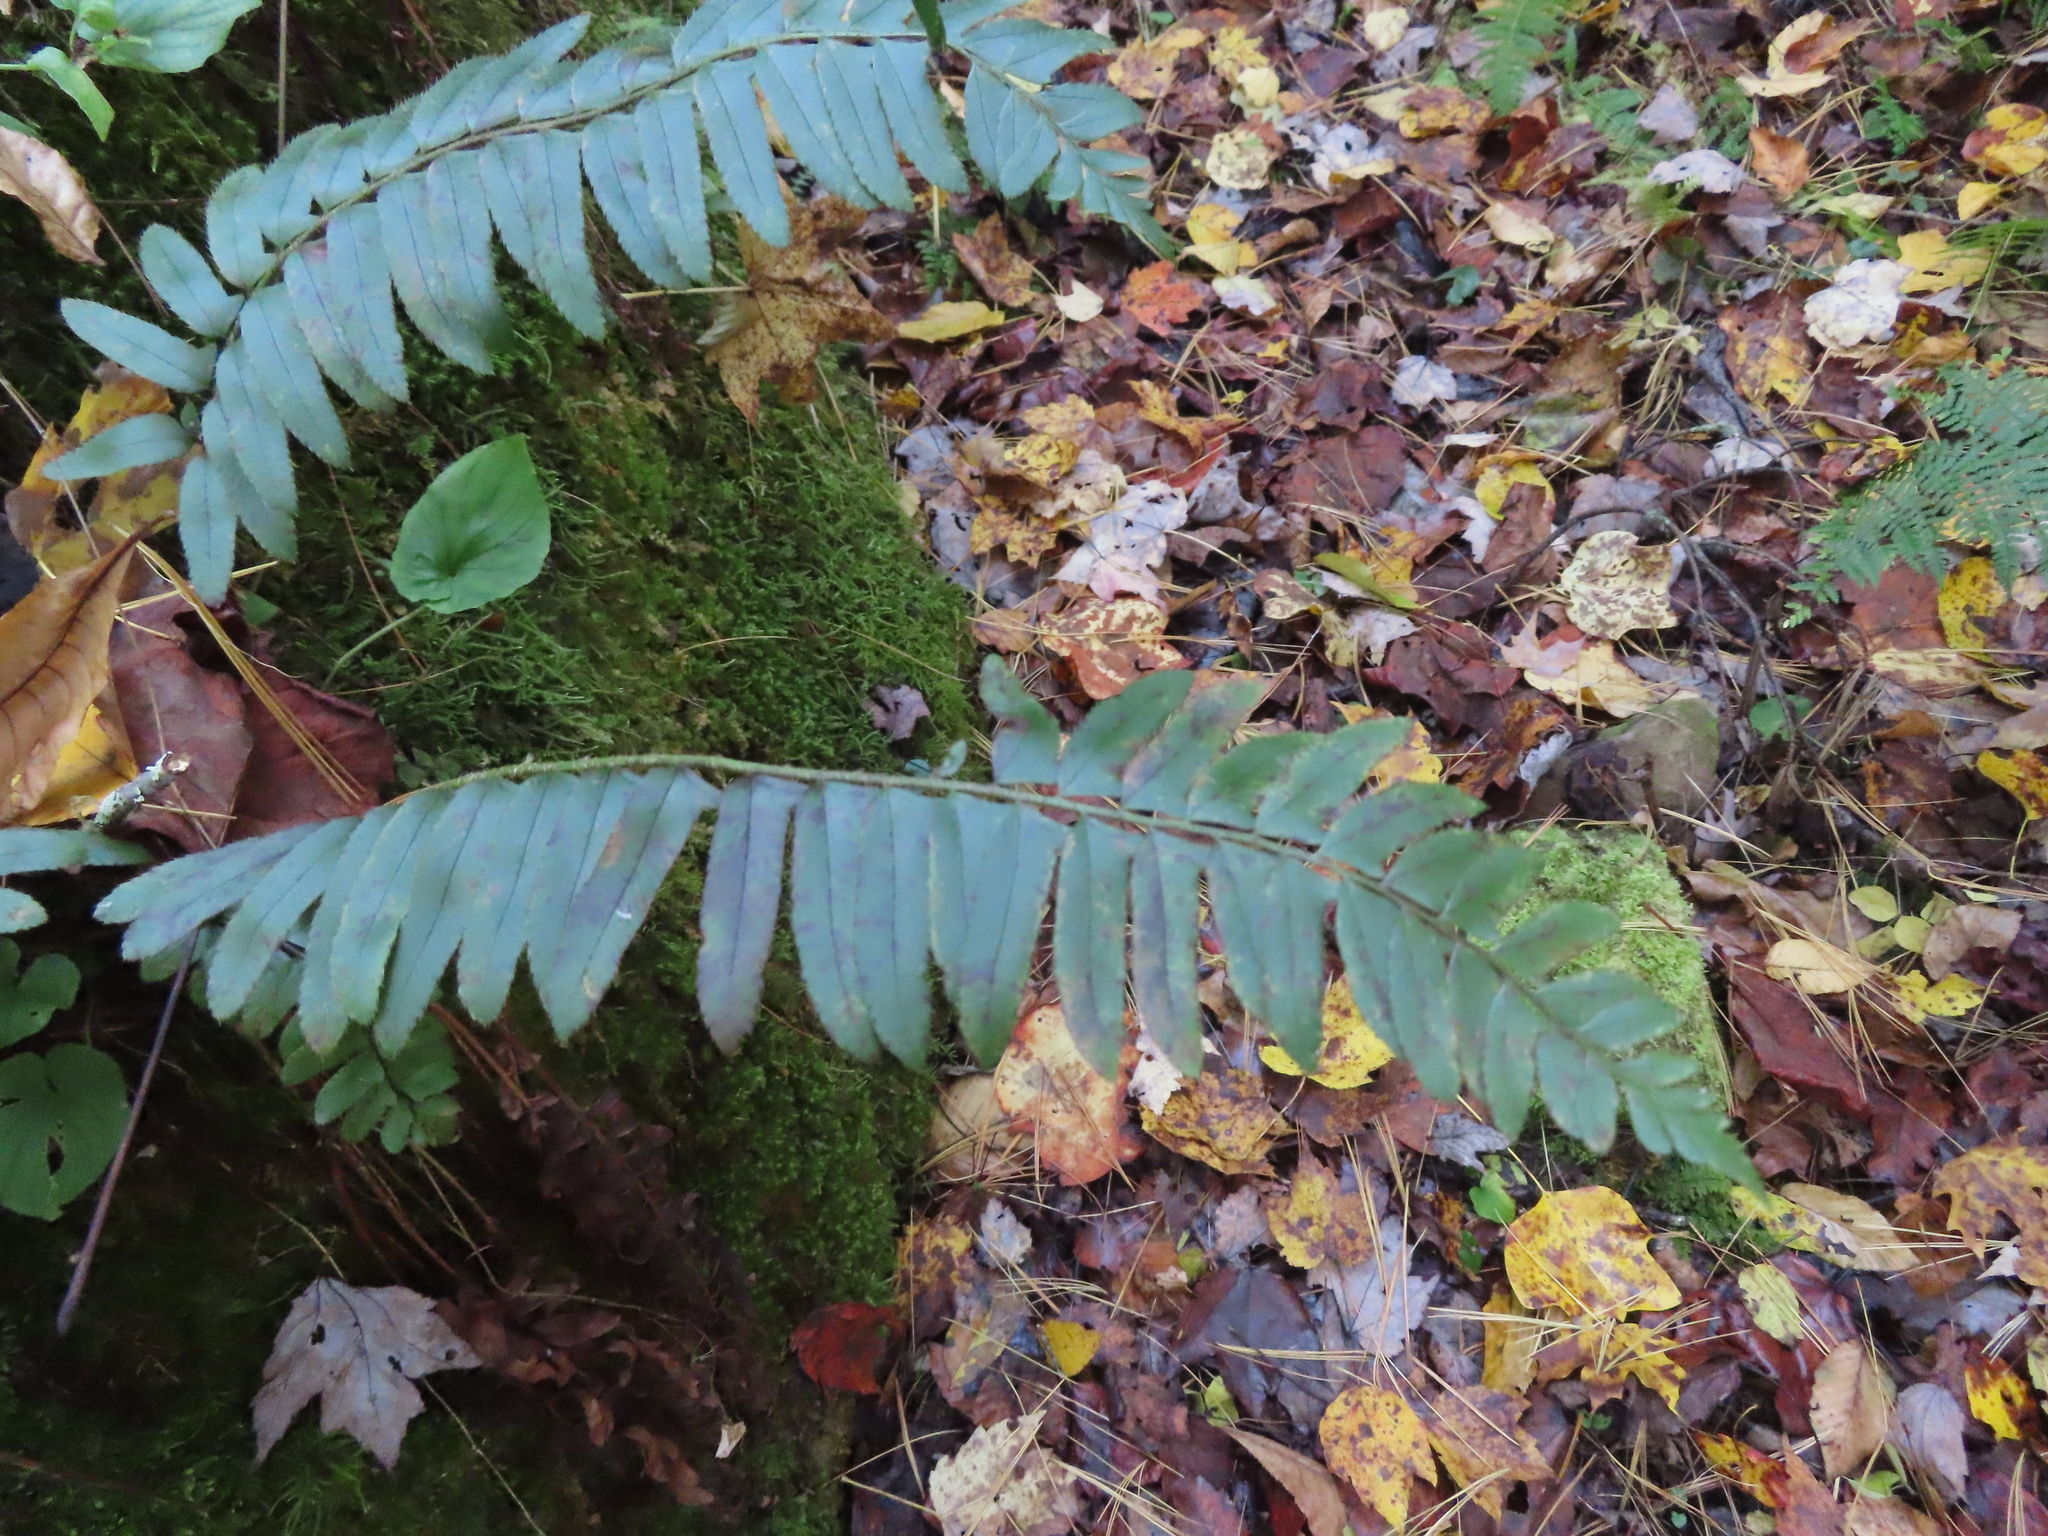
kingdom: Plantae
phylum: Tracheophyta
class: Polypodiopsida
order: Polypodiales
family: Dryopteridaceae
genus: Polystichum
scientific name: Polystichum acrostichoides
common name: Christmas fern
